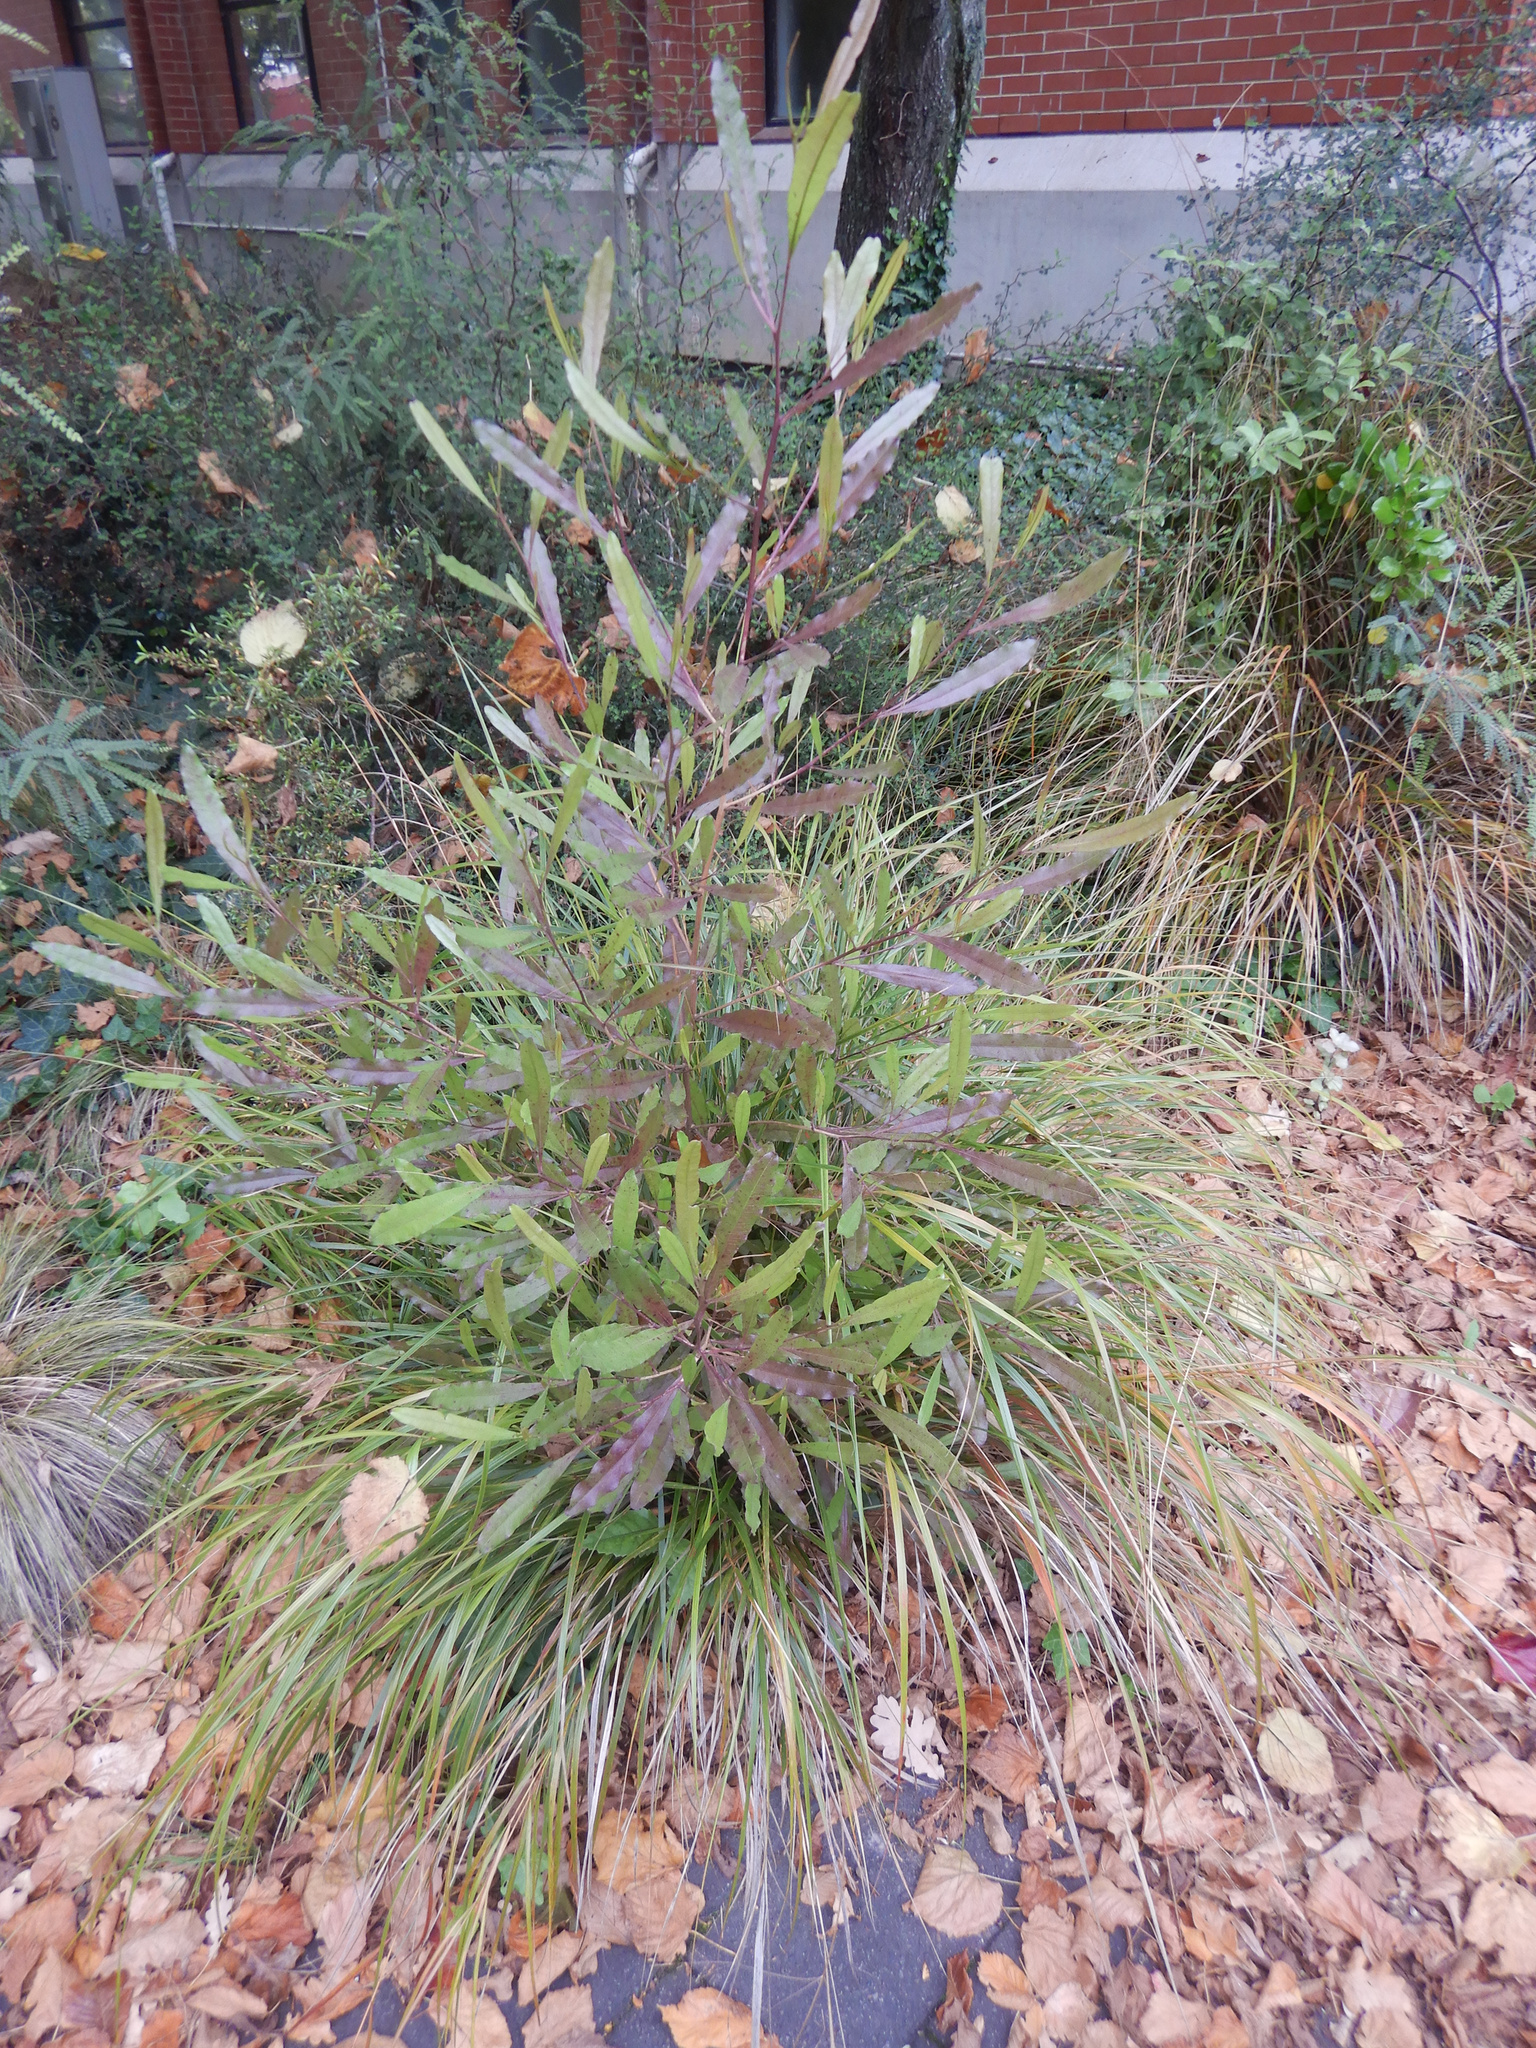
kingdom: Plantae
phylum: Tracheophyta
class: Magnoliopsida
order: Sapindales
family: Sapindaceae
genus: Dodonaea
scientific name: Dodonaea viscosa
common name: Hopbush
